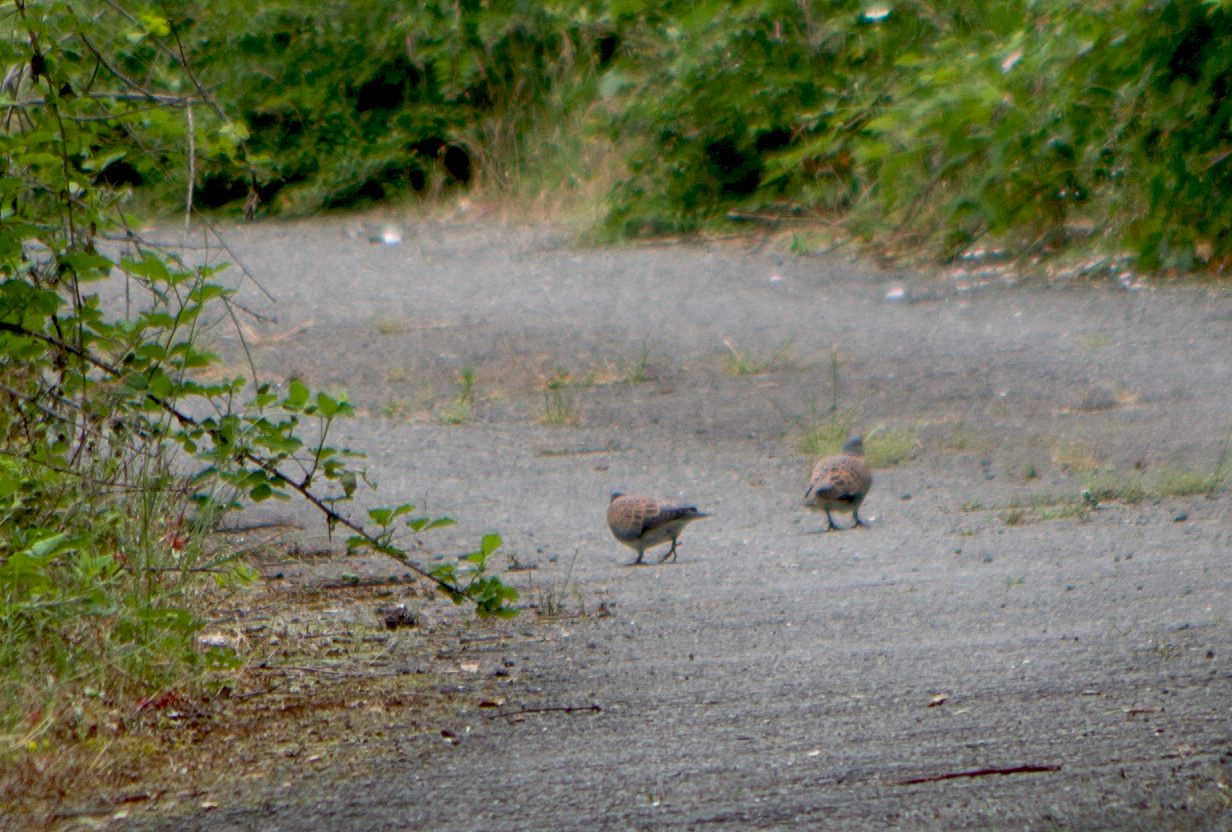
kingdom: Animalia
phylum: Chordata
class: Aves
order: Columbiformes
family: Columbidae
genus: Streptopelia
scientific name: Streptopelia turtur
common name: European turtle dove
